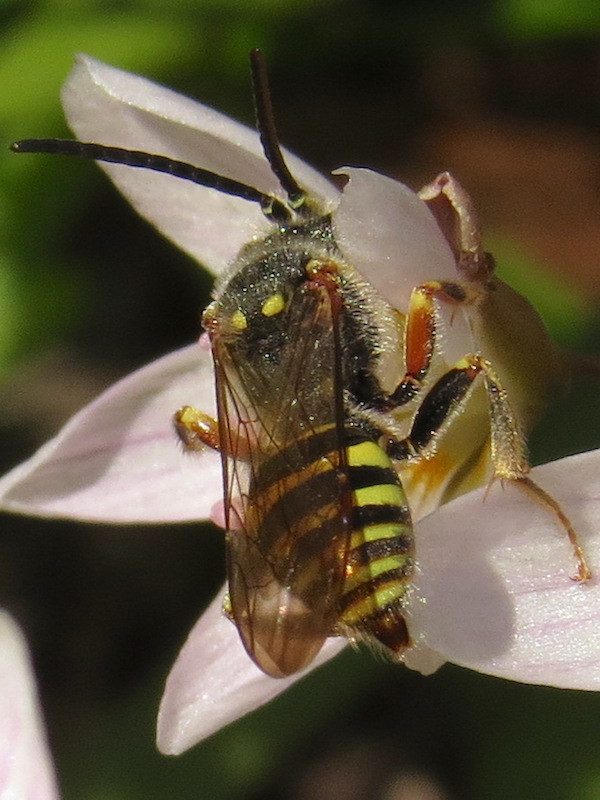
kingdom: Animalia
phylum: Arthropoda
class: Insecta
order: Hymenoptera
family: Apidae
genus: Nomada
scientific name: Nomada
